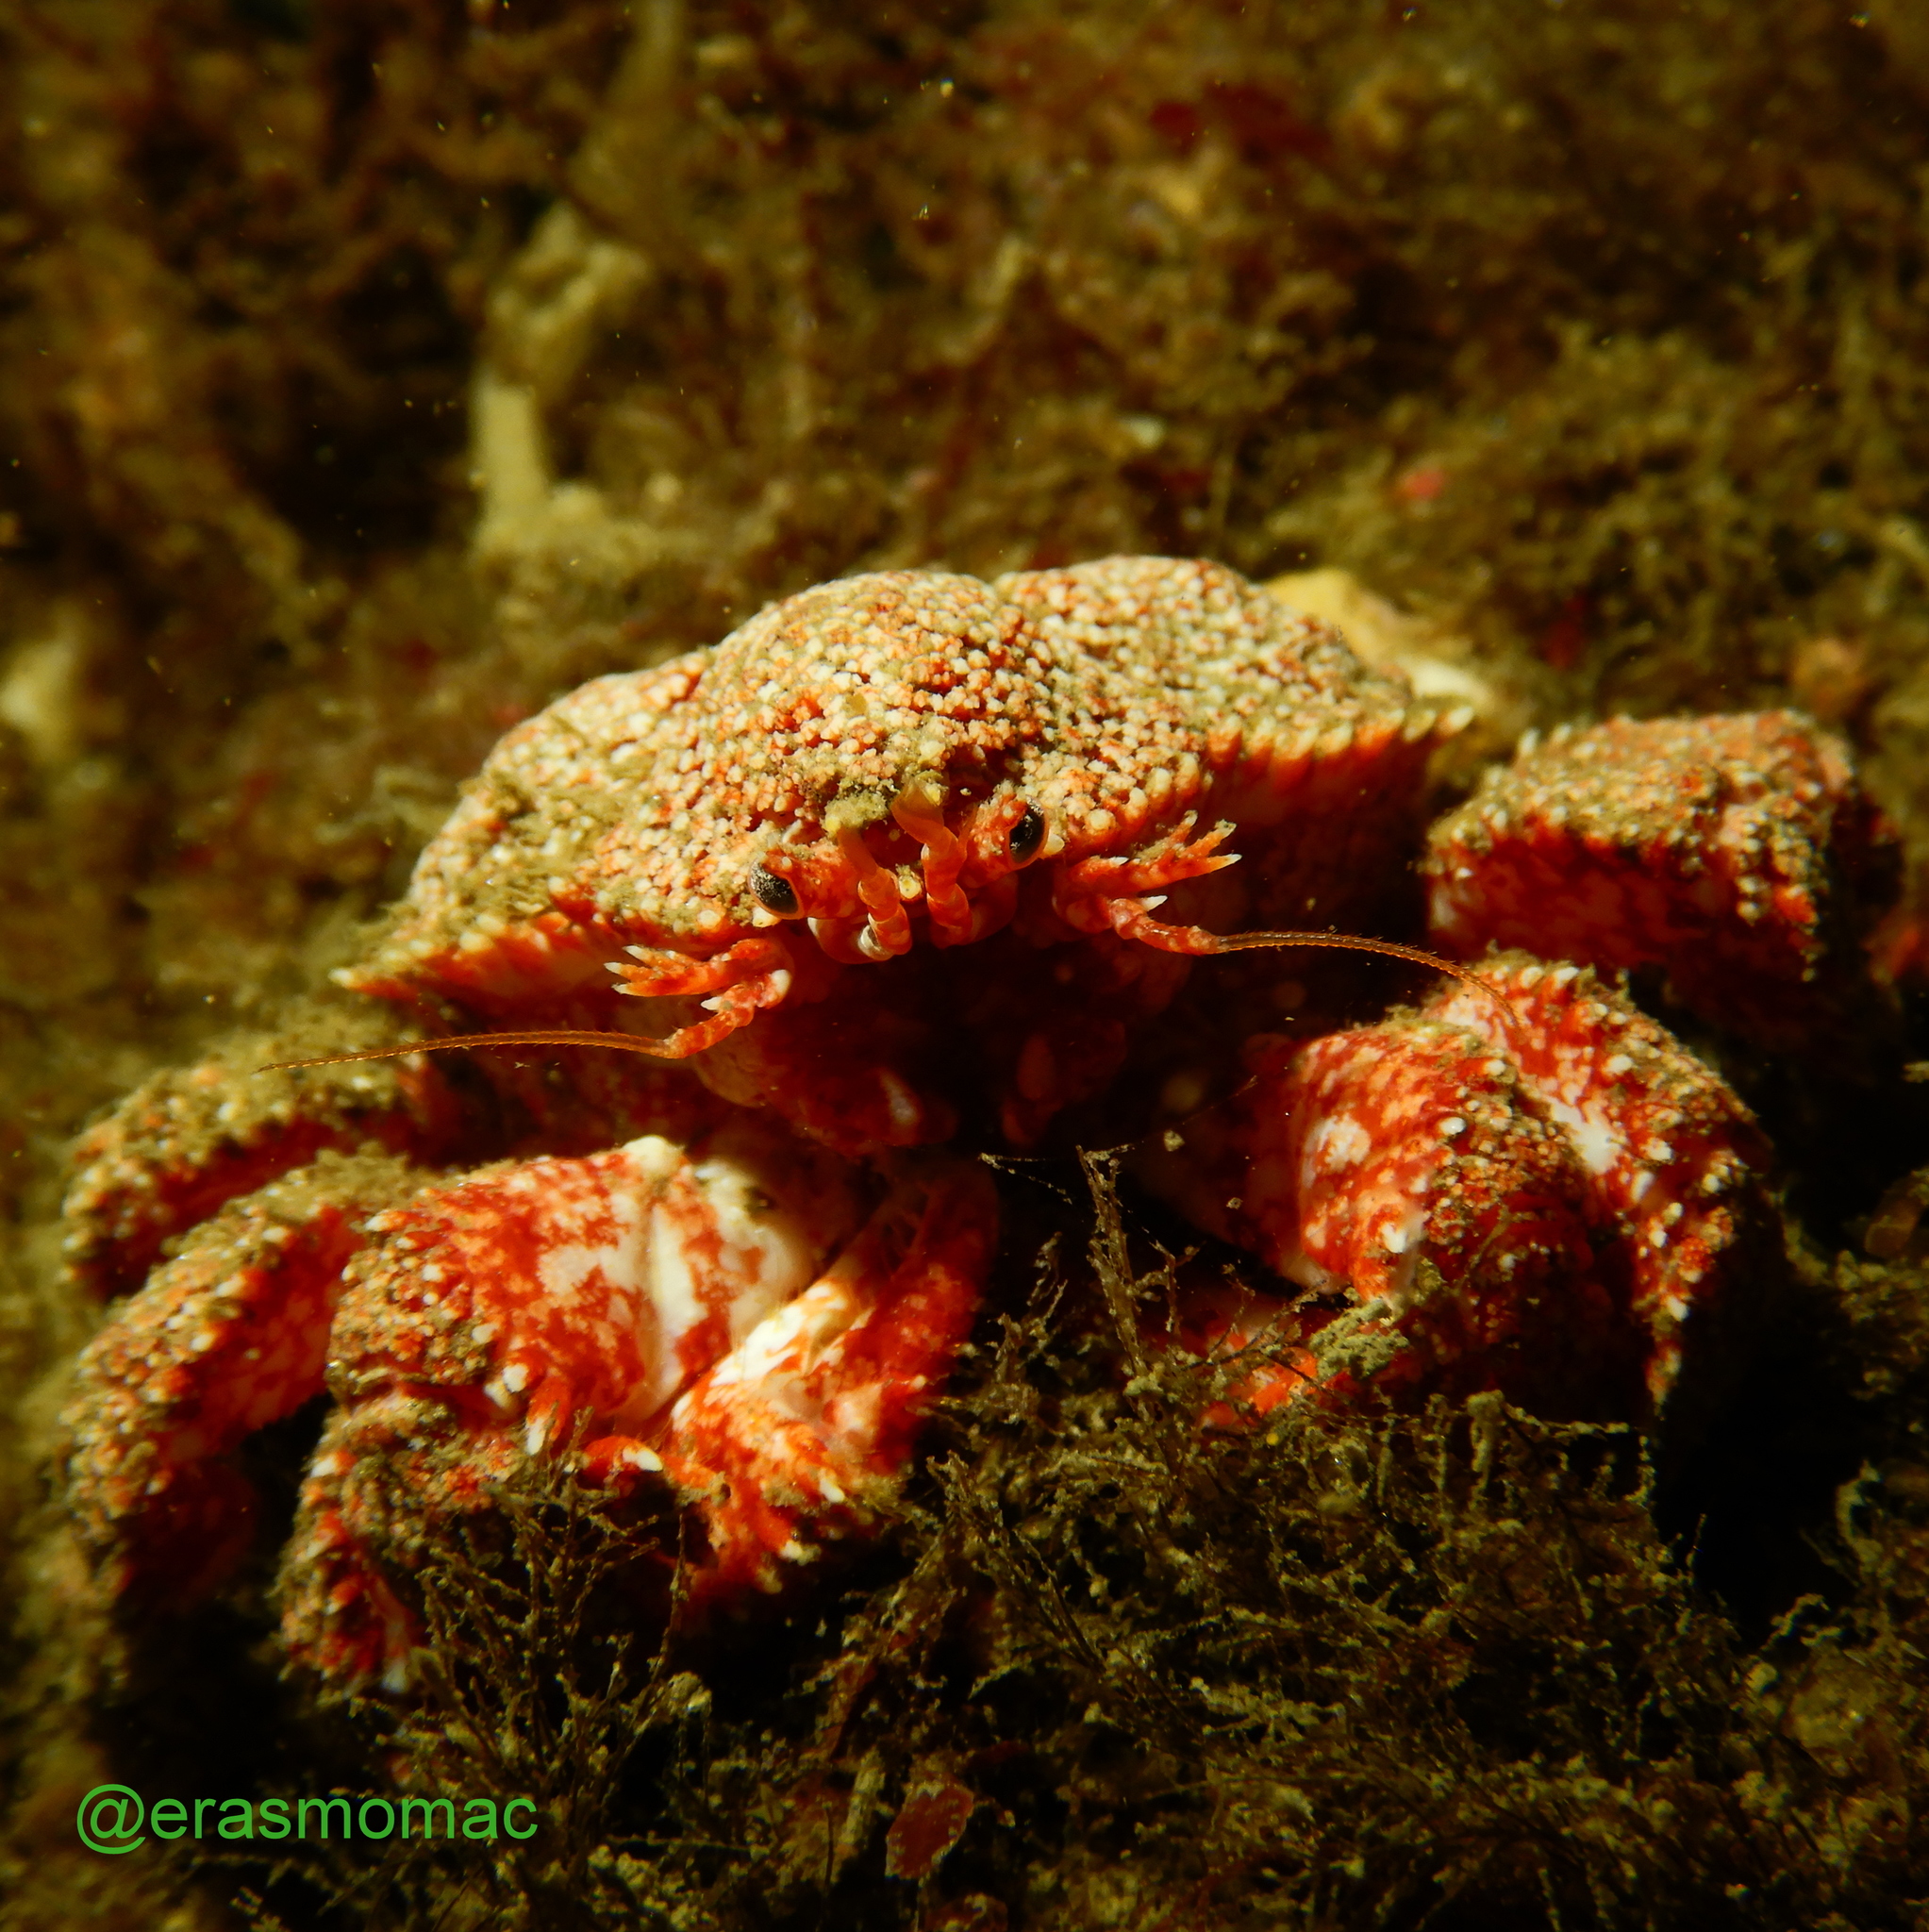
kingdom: Animalia
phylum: Arthropoda
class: Malacostraca
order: Decapoda
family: Lithodidae
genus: Paralomis
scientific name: Paralomis granulosa
